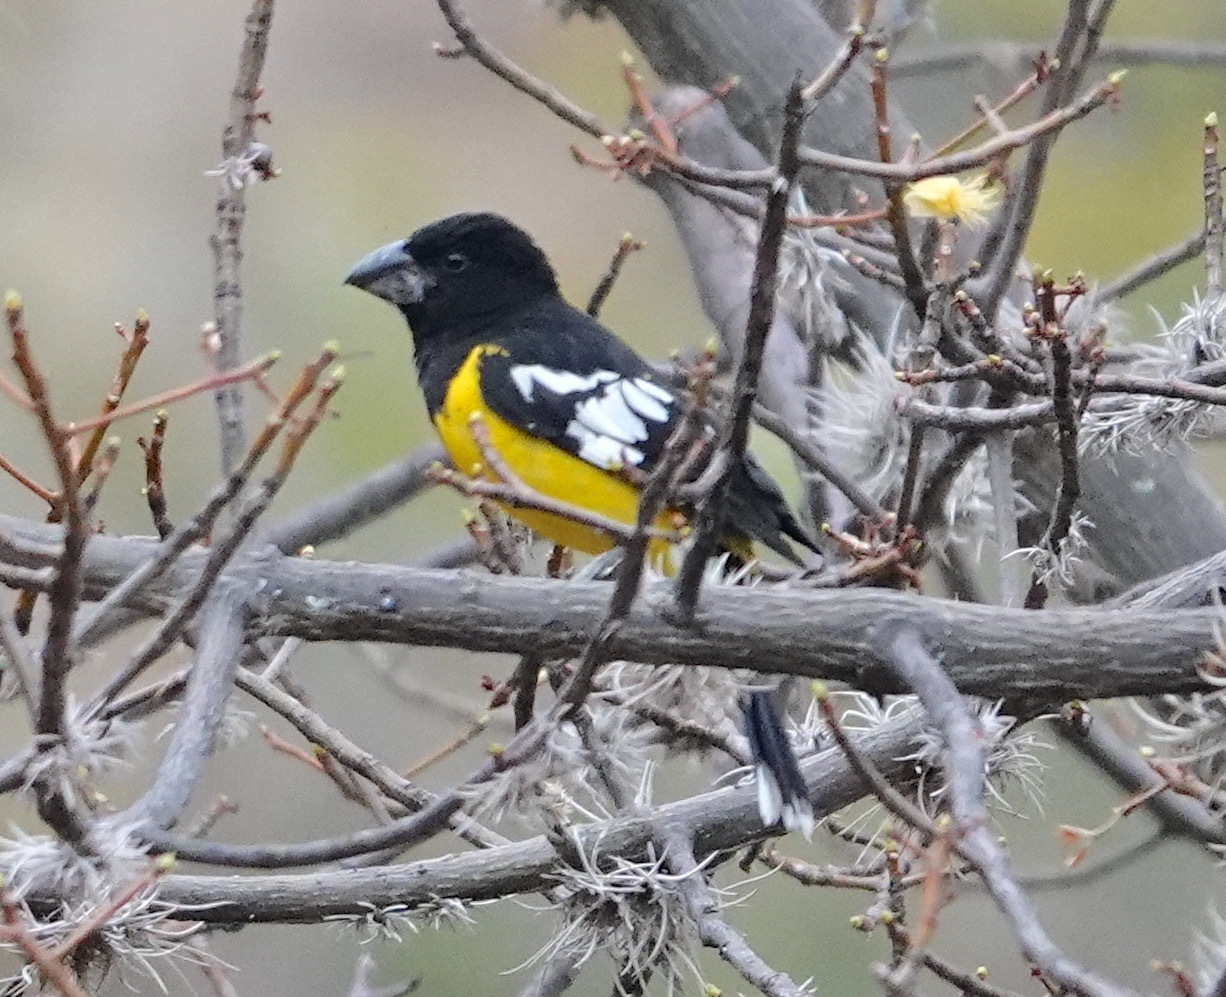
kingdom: Animalia
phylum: Chordata
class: Aves
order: Passeriformes
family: Cardinalidae
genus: Pheucticus
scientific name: Pheucticus aureoventris
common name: Black-backed grosbeak
